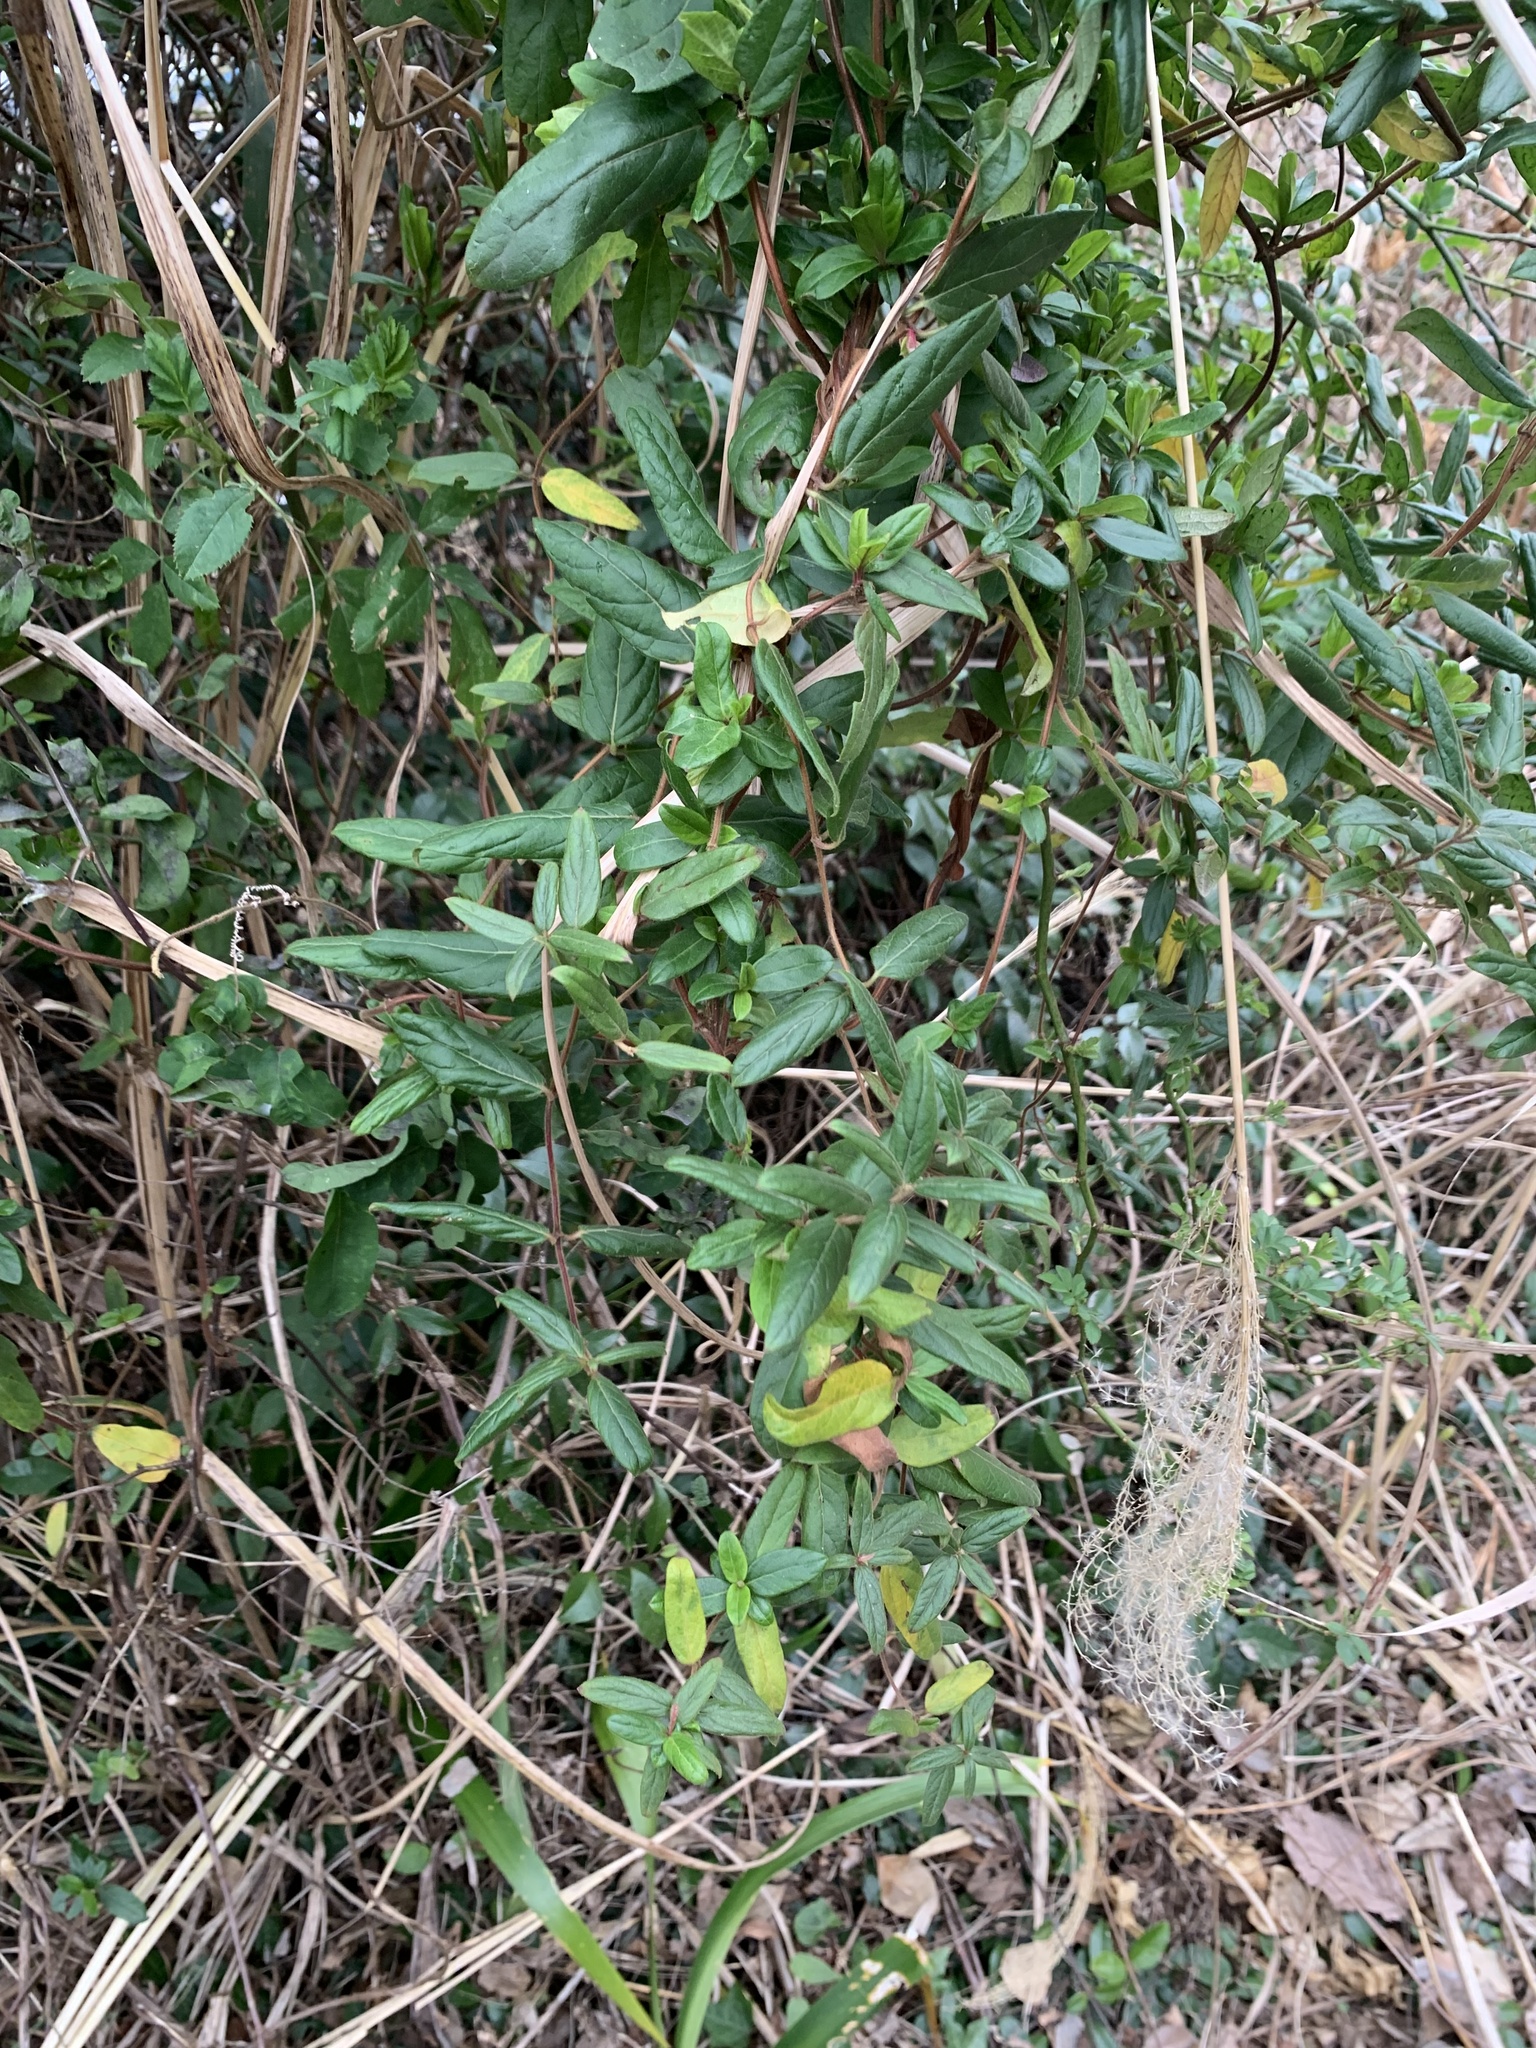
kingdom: Plantae
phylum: Tracheophyta
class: Magnoliopsida
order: Dipsacales
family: Caprifoliaceae
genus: Lonicera
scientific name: Lonicera japonica
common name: Japanese honeysuckle
